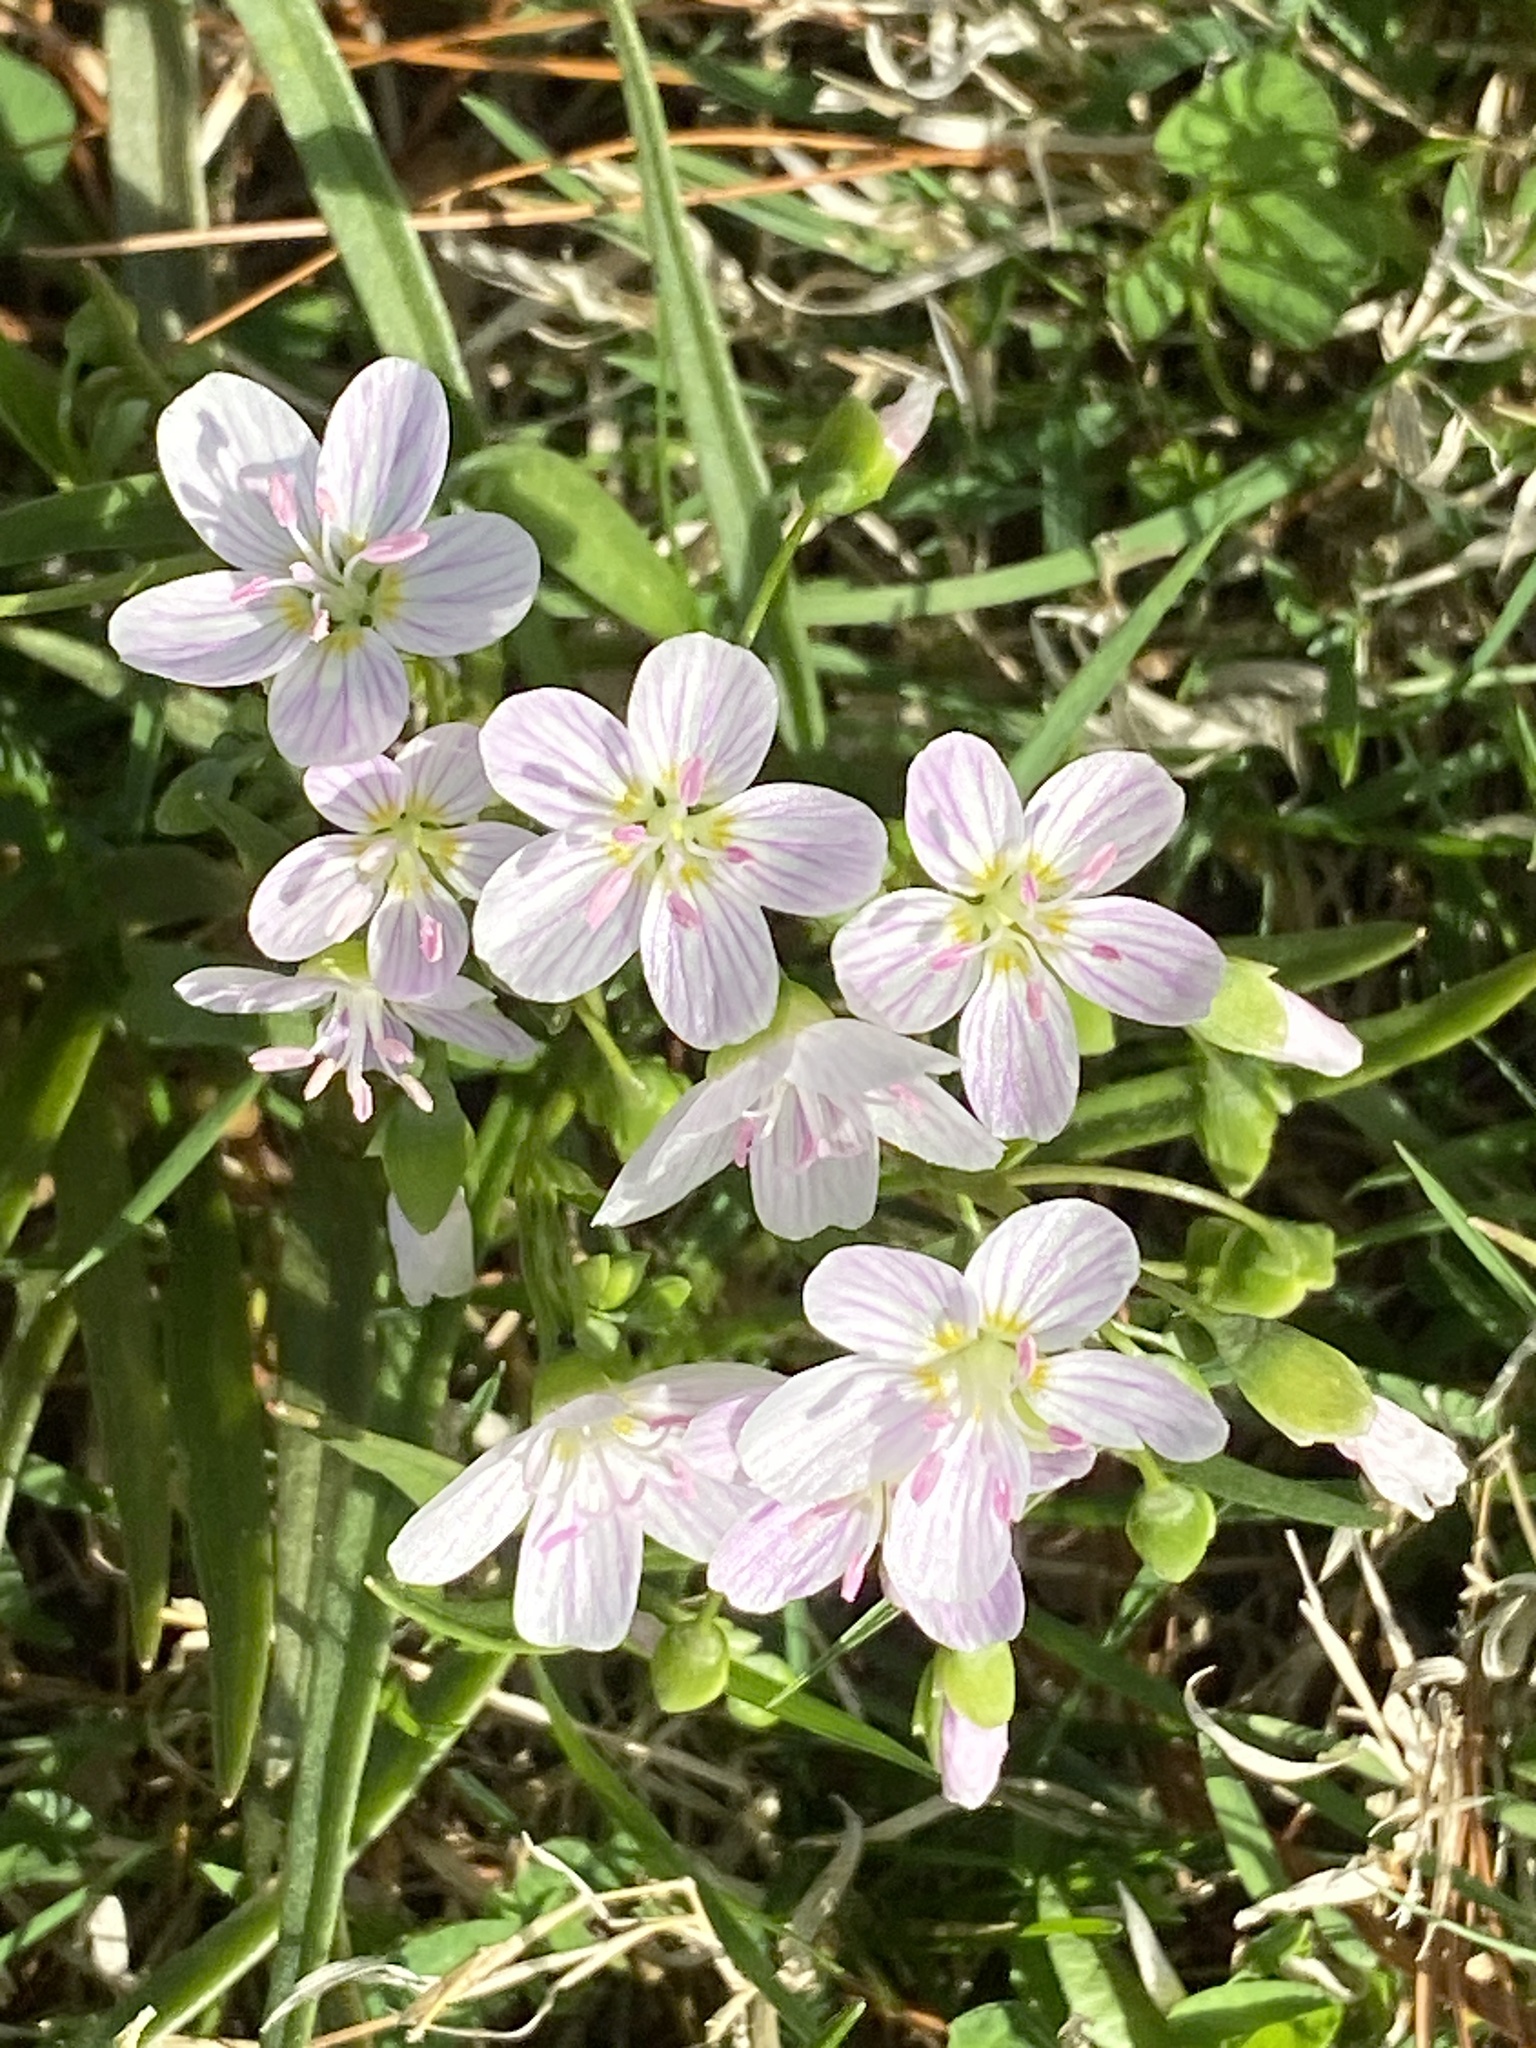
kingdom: Plantae
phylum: Tracheophyta
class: Magnoliopsida
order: Caryophyllales
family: Montiaceae
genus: Claytonia
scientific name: Claytonia virginica
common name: Virginia springbeauty
